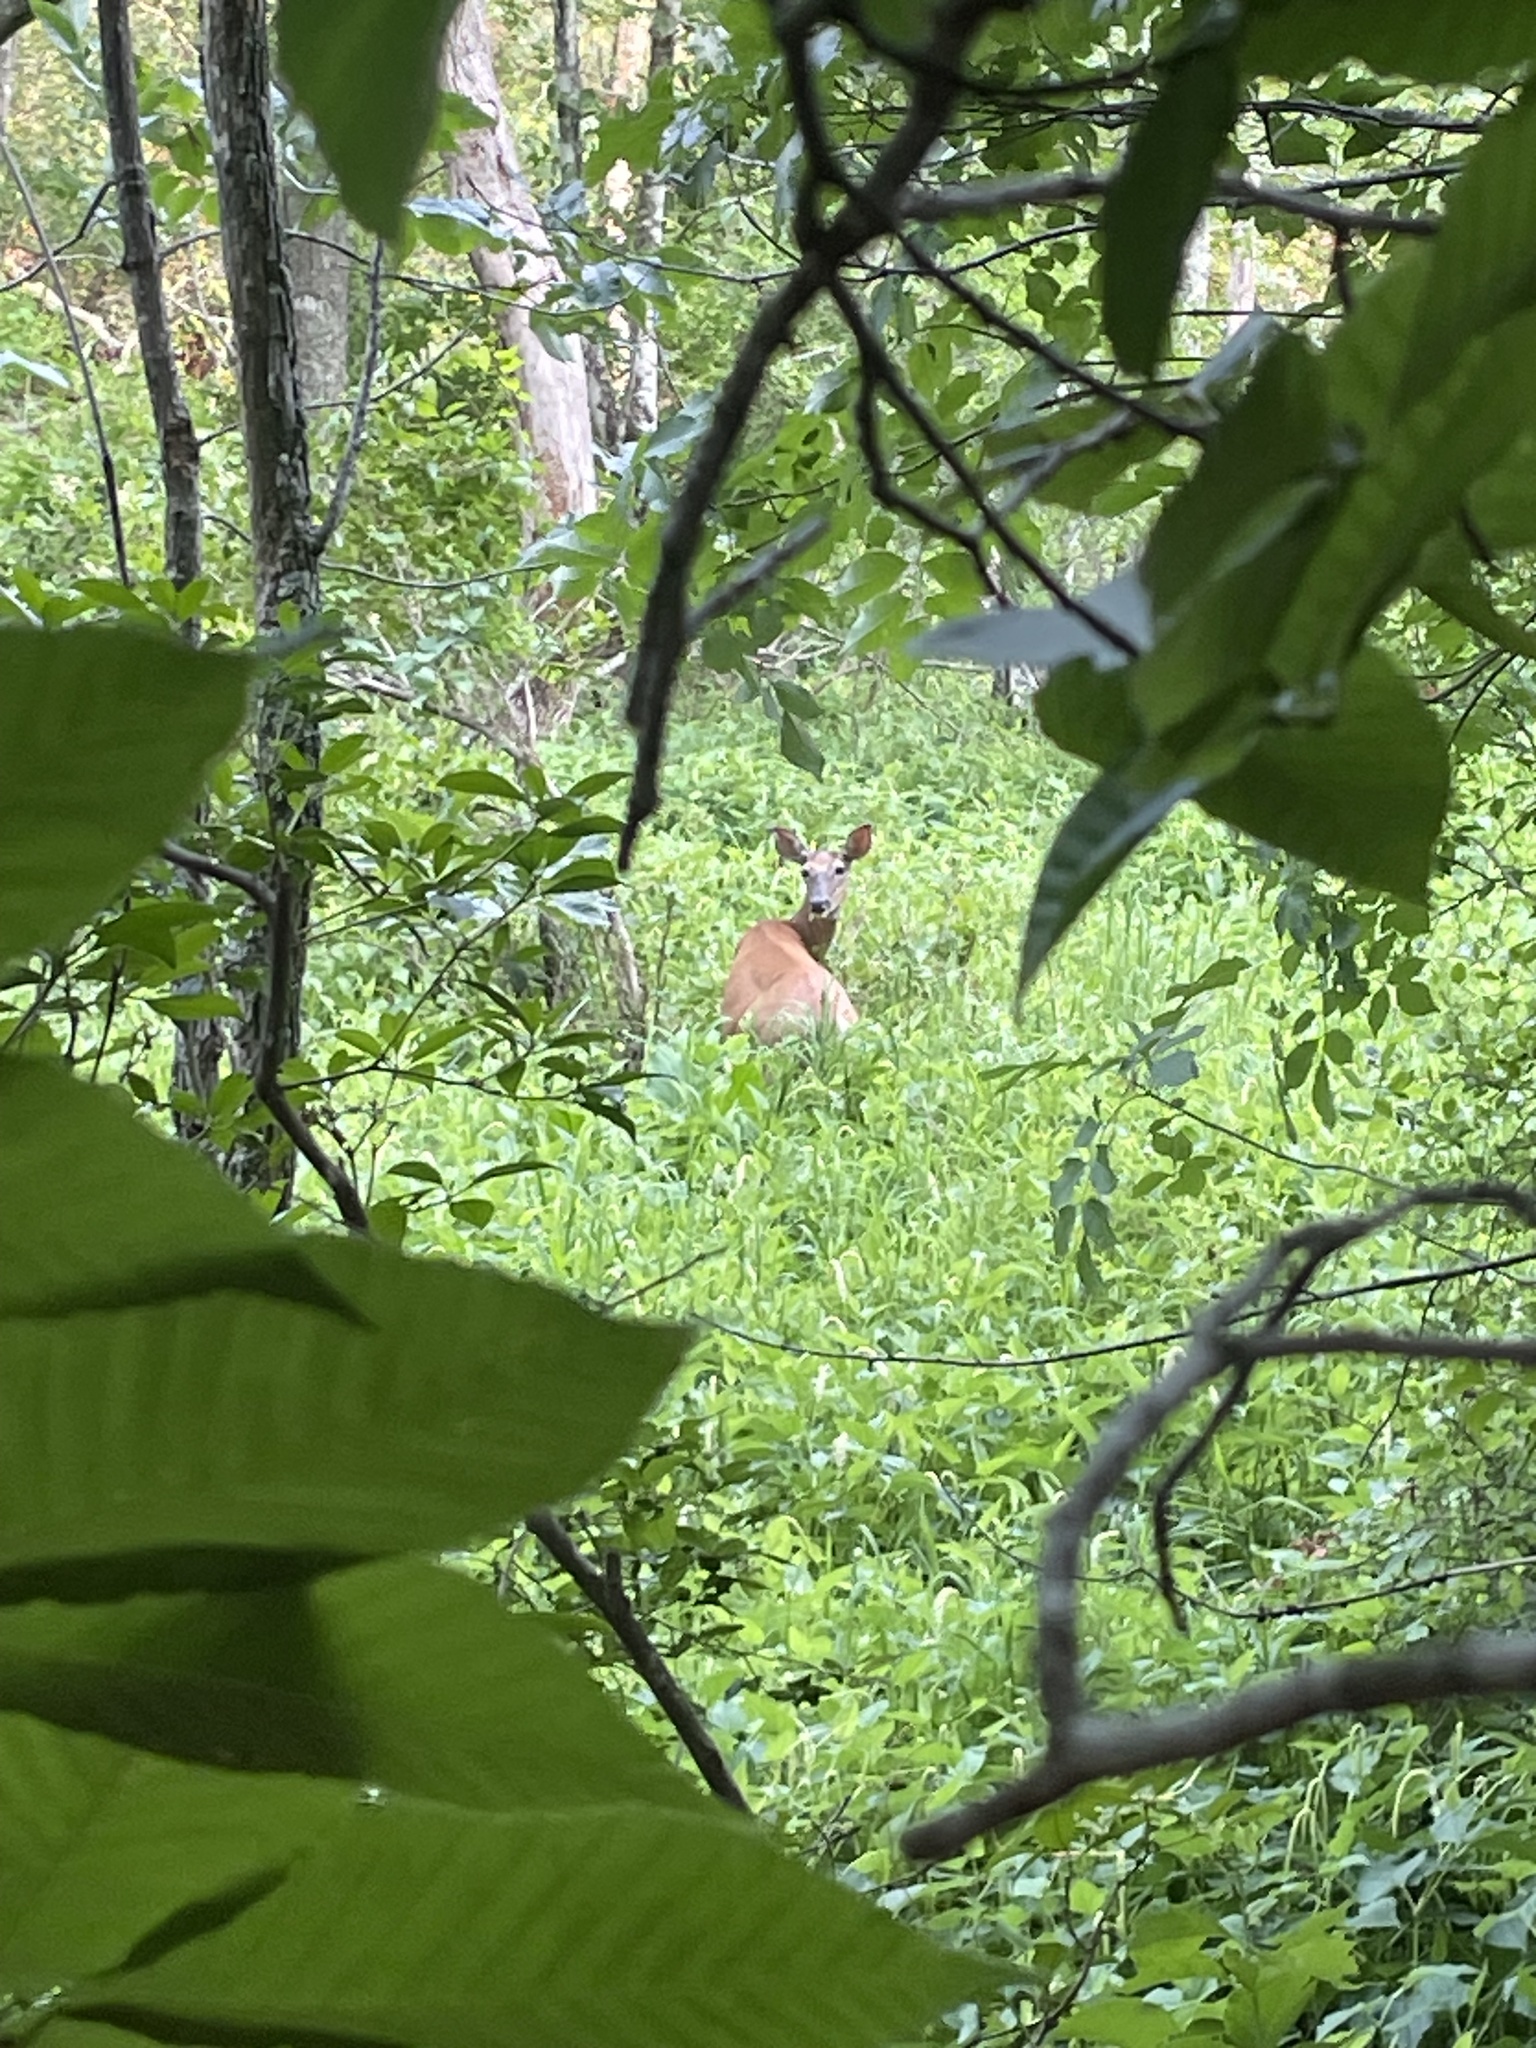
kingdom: Animalia
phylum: Chordata
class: Mammalia
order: Artiodactyla
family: Cervidae
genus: Odocoileus
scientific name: Odocoileus virginianus
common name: White-tailed deer
